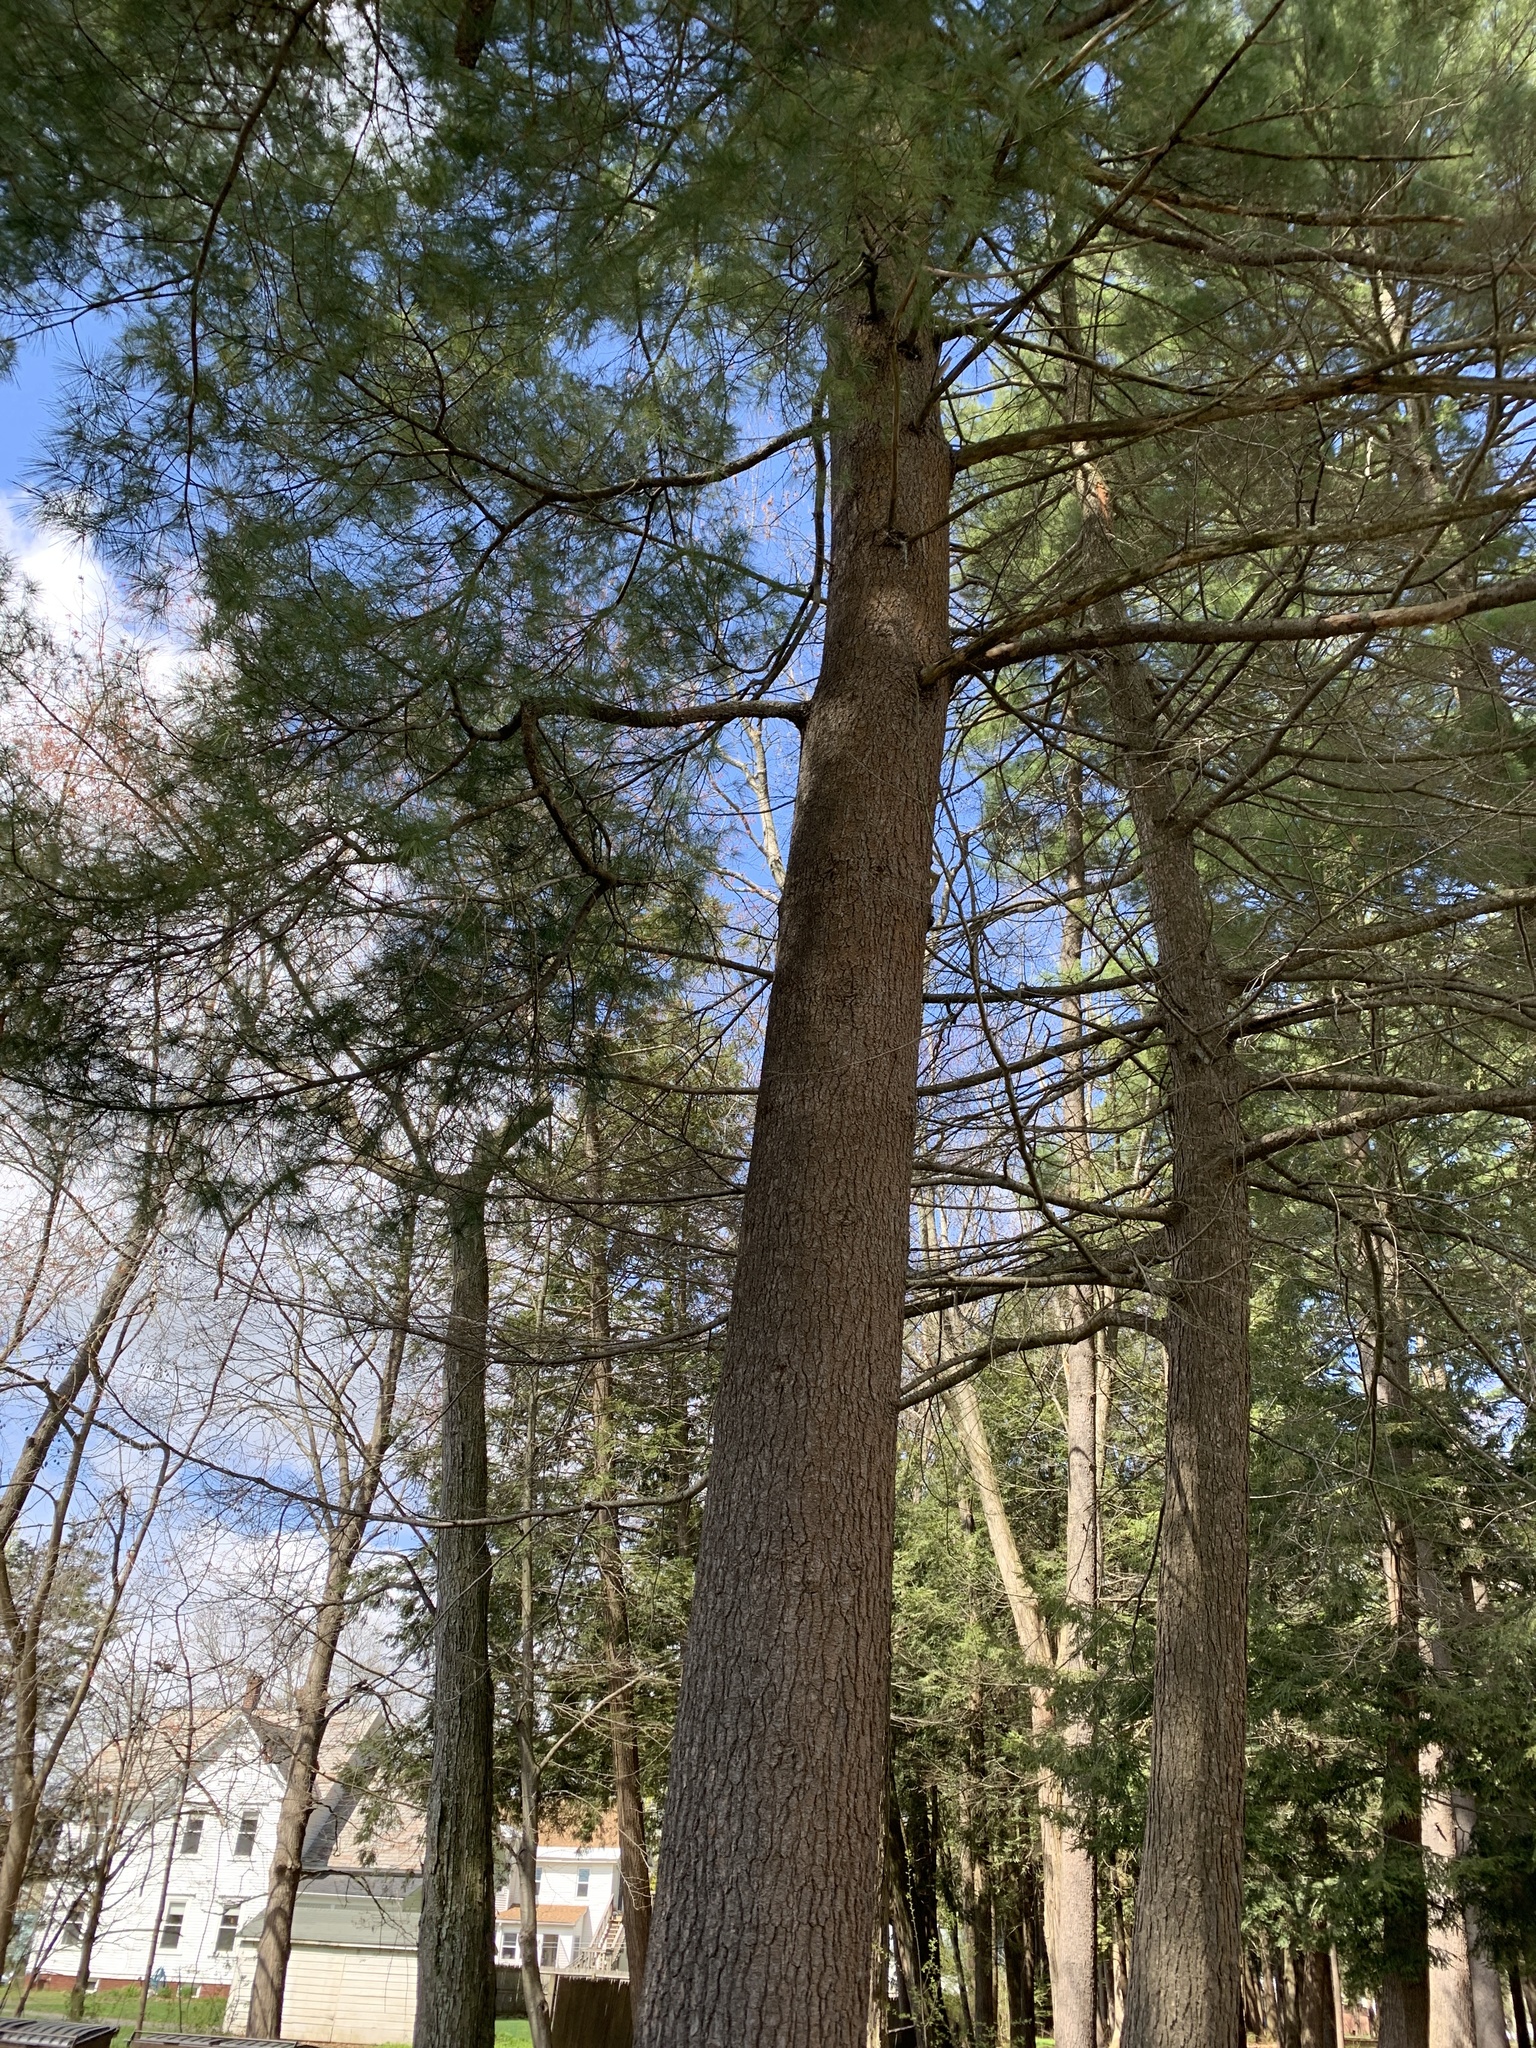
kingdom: Plantae
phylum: Tracheophyta
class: Pinopsida
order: Pinales
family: Pinaceae
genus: Pinus
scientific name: Pinus strobus
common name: Weymouth pine
